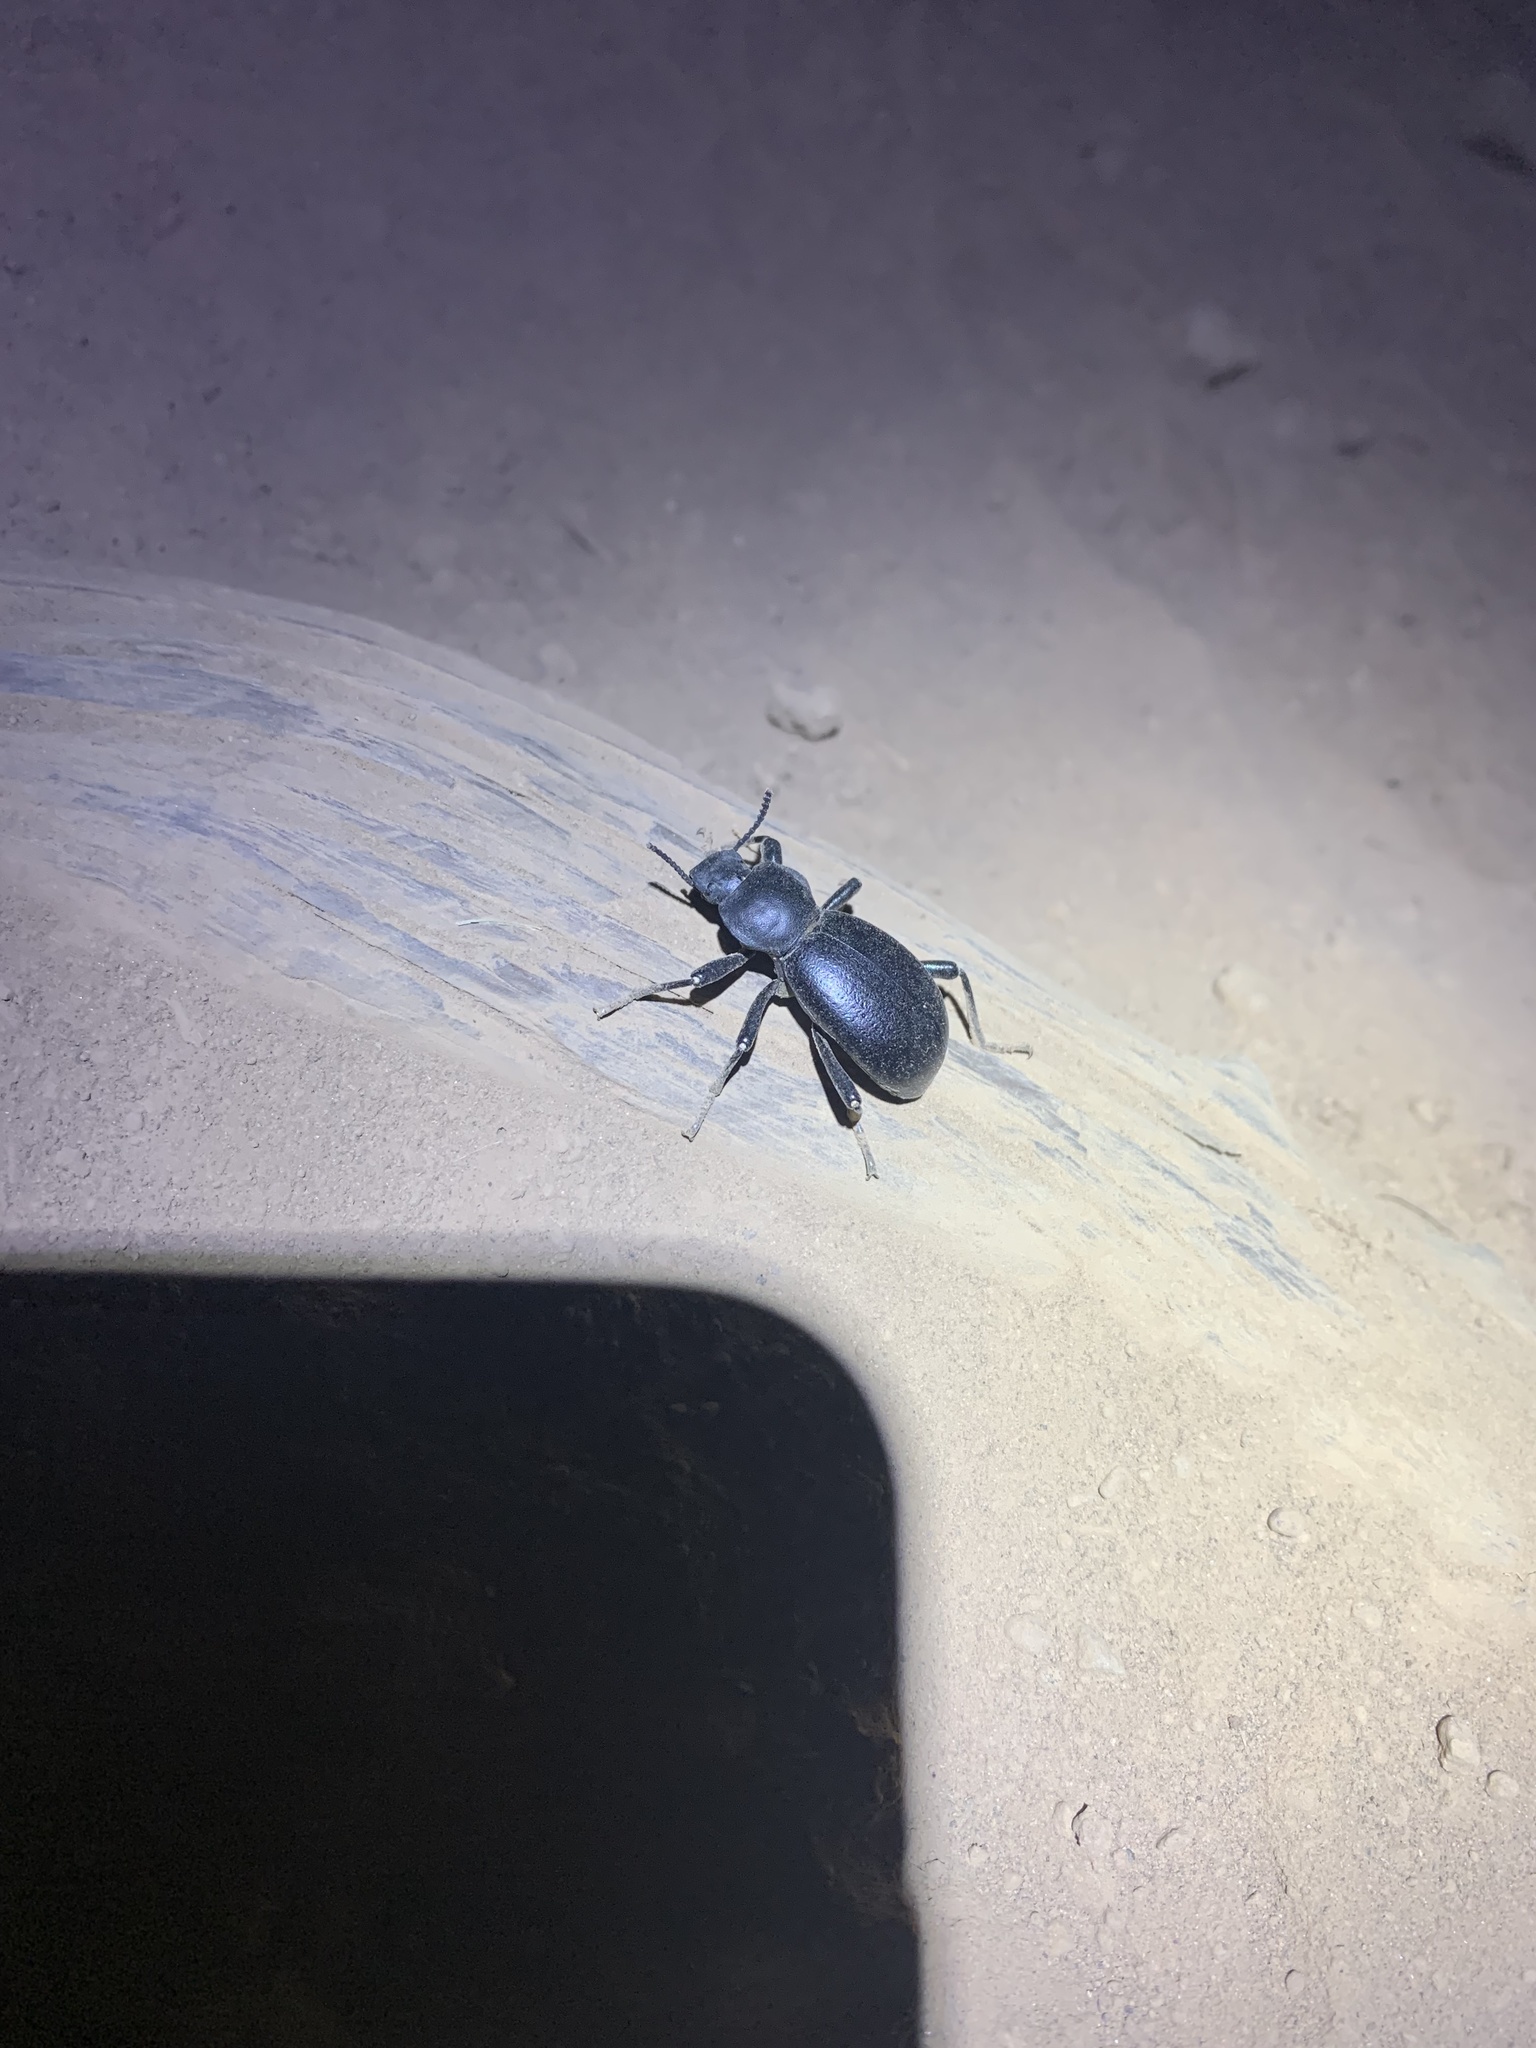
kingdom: Animalia
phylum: Arthropoda
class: Insecta
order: Coleoptera
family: Tenebrionidae
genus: Coelocnemis
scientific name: Coelocnemis dilaticollis
